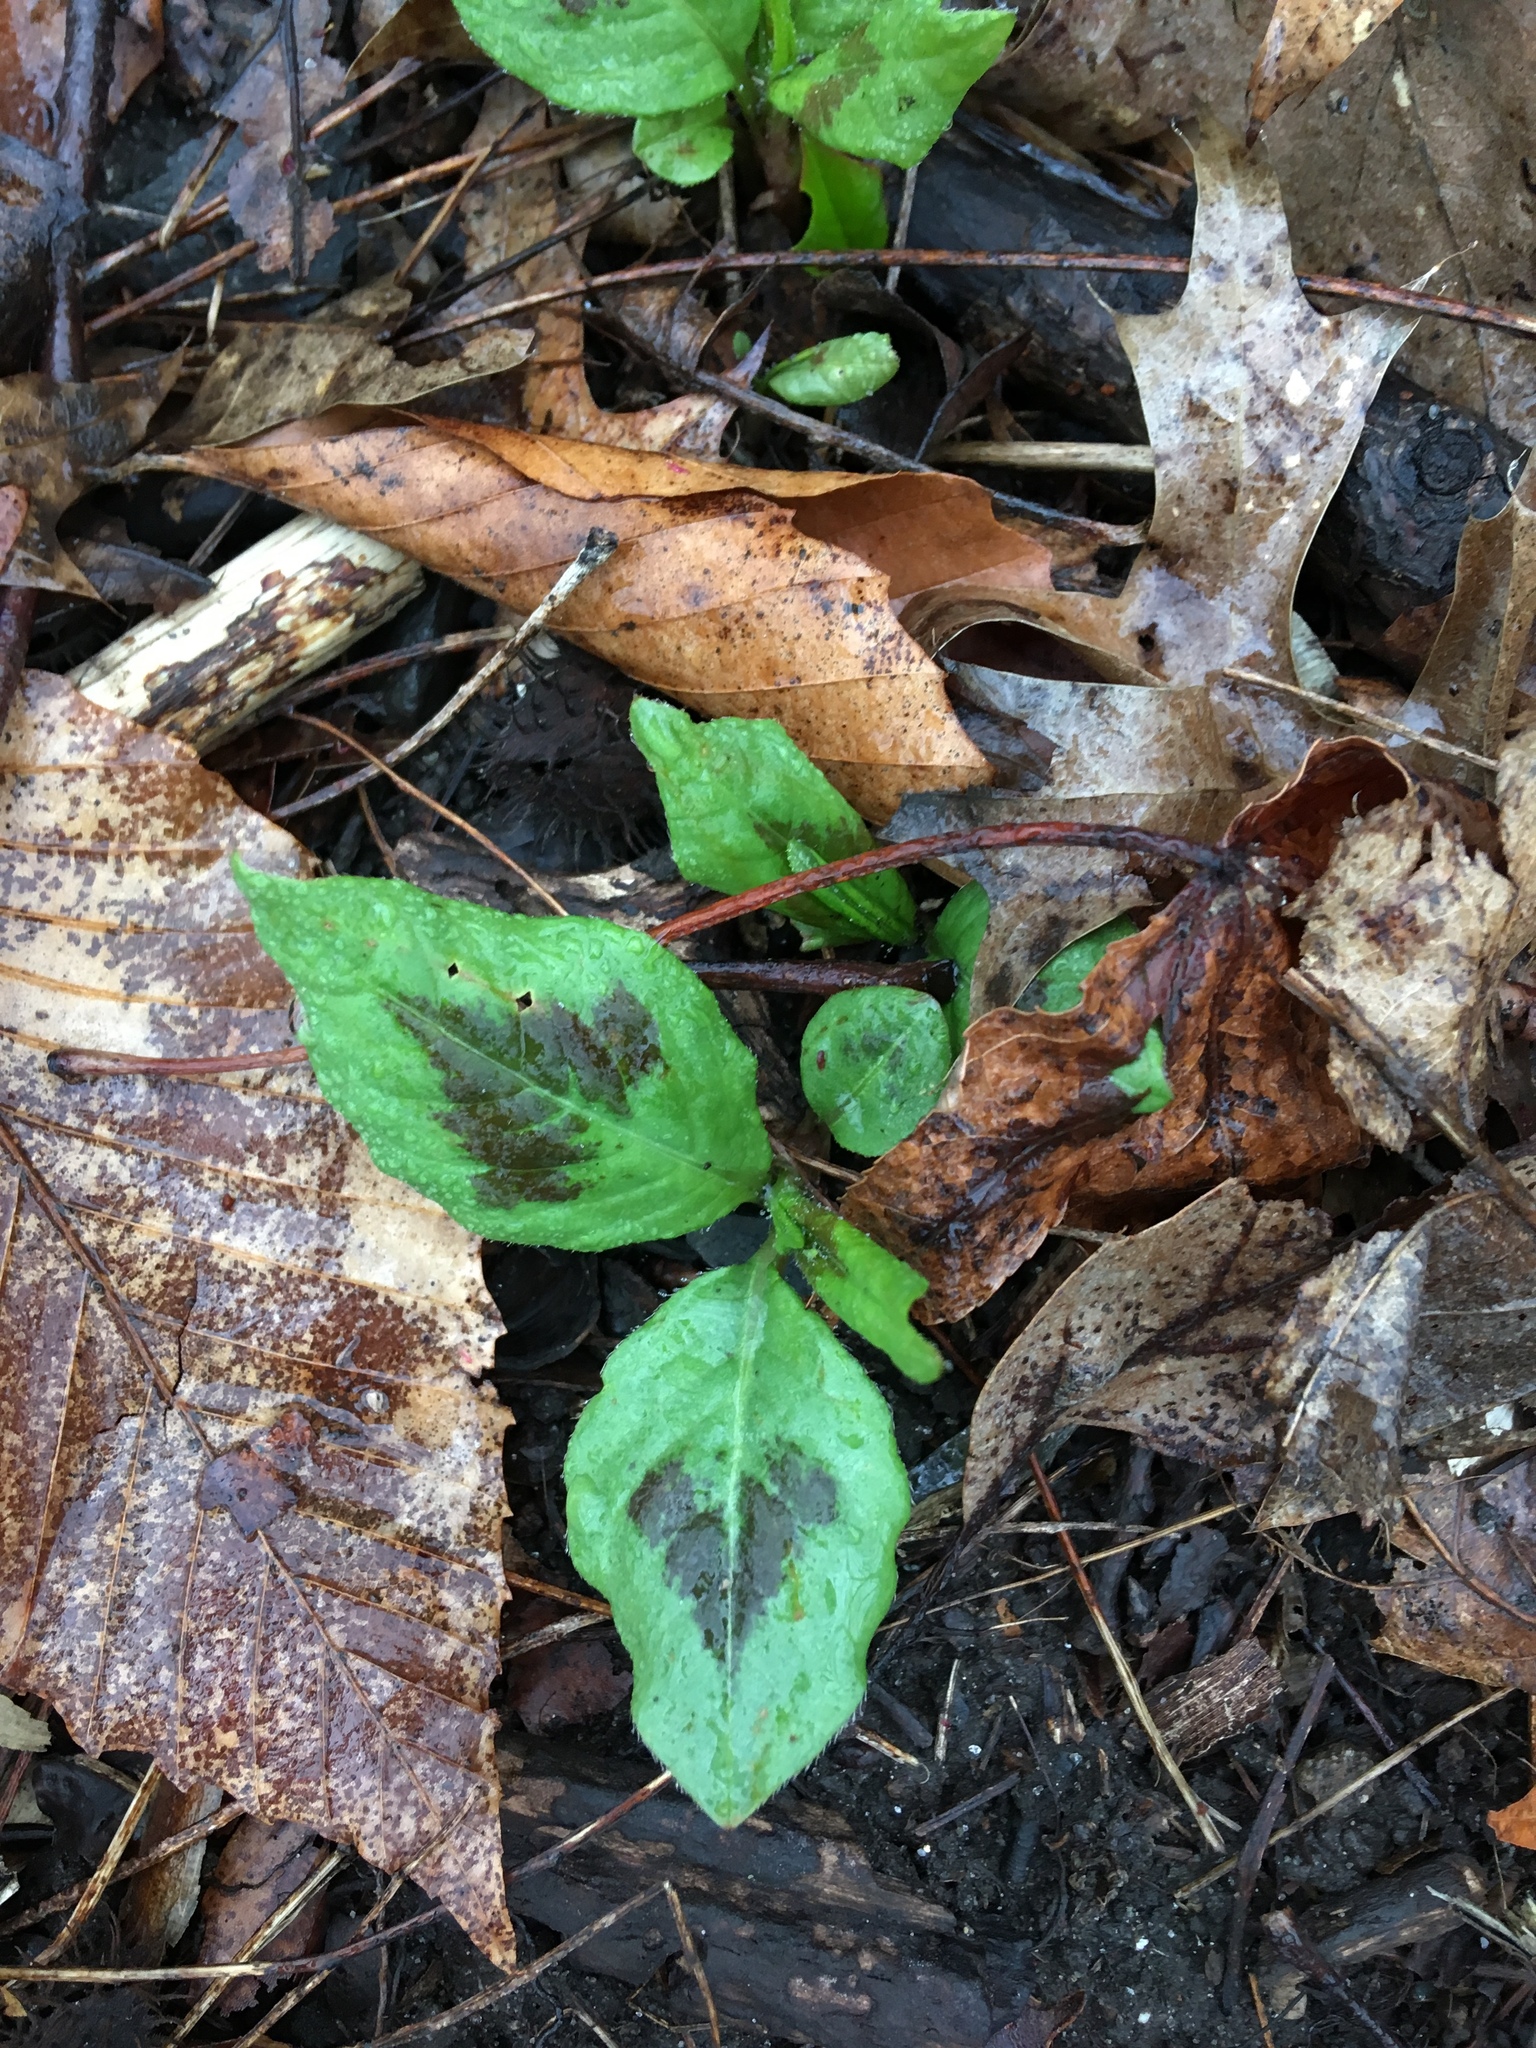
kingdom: Plantae
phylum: Tracheophyta
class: Magnoliopsida
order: Caryophyllales
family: Polygonaceae
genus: Persicaria
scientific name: Persicaria virginiana
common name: Jumpseed
